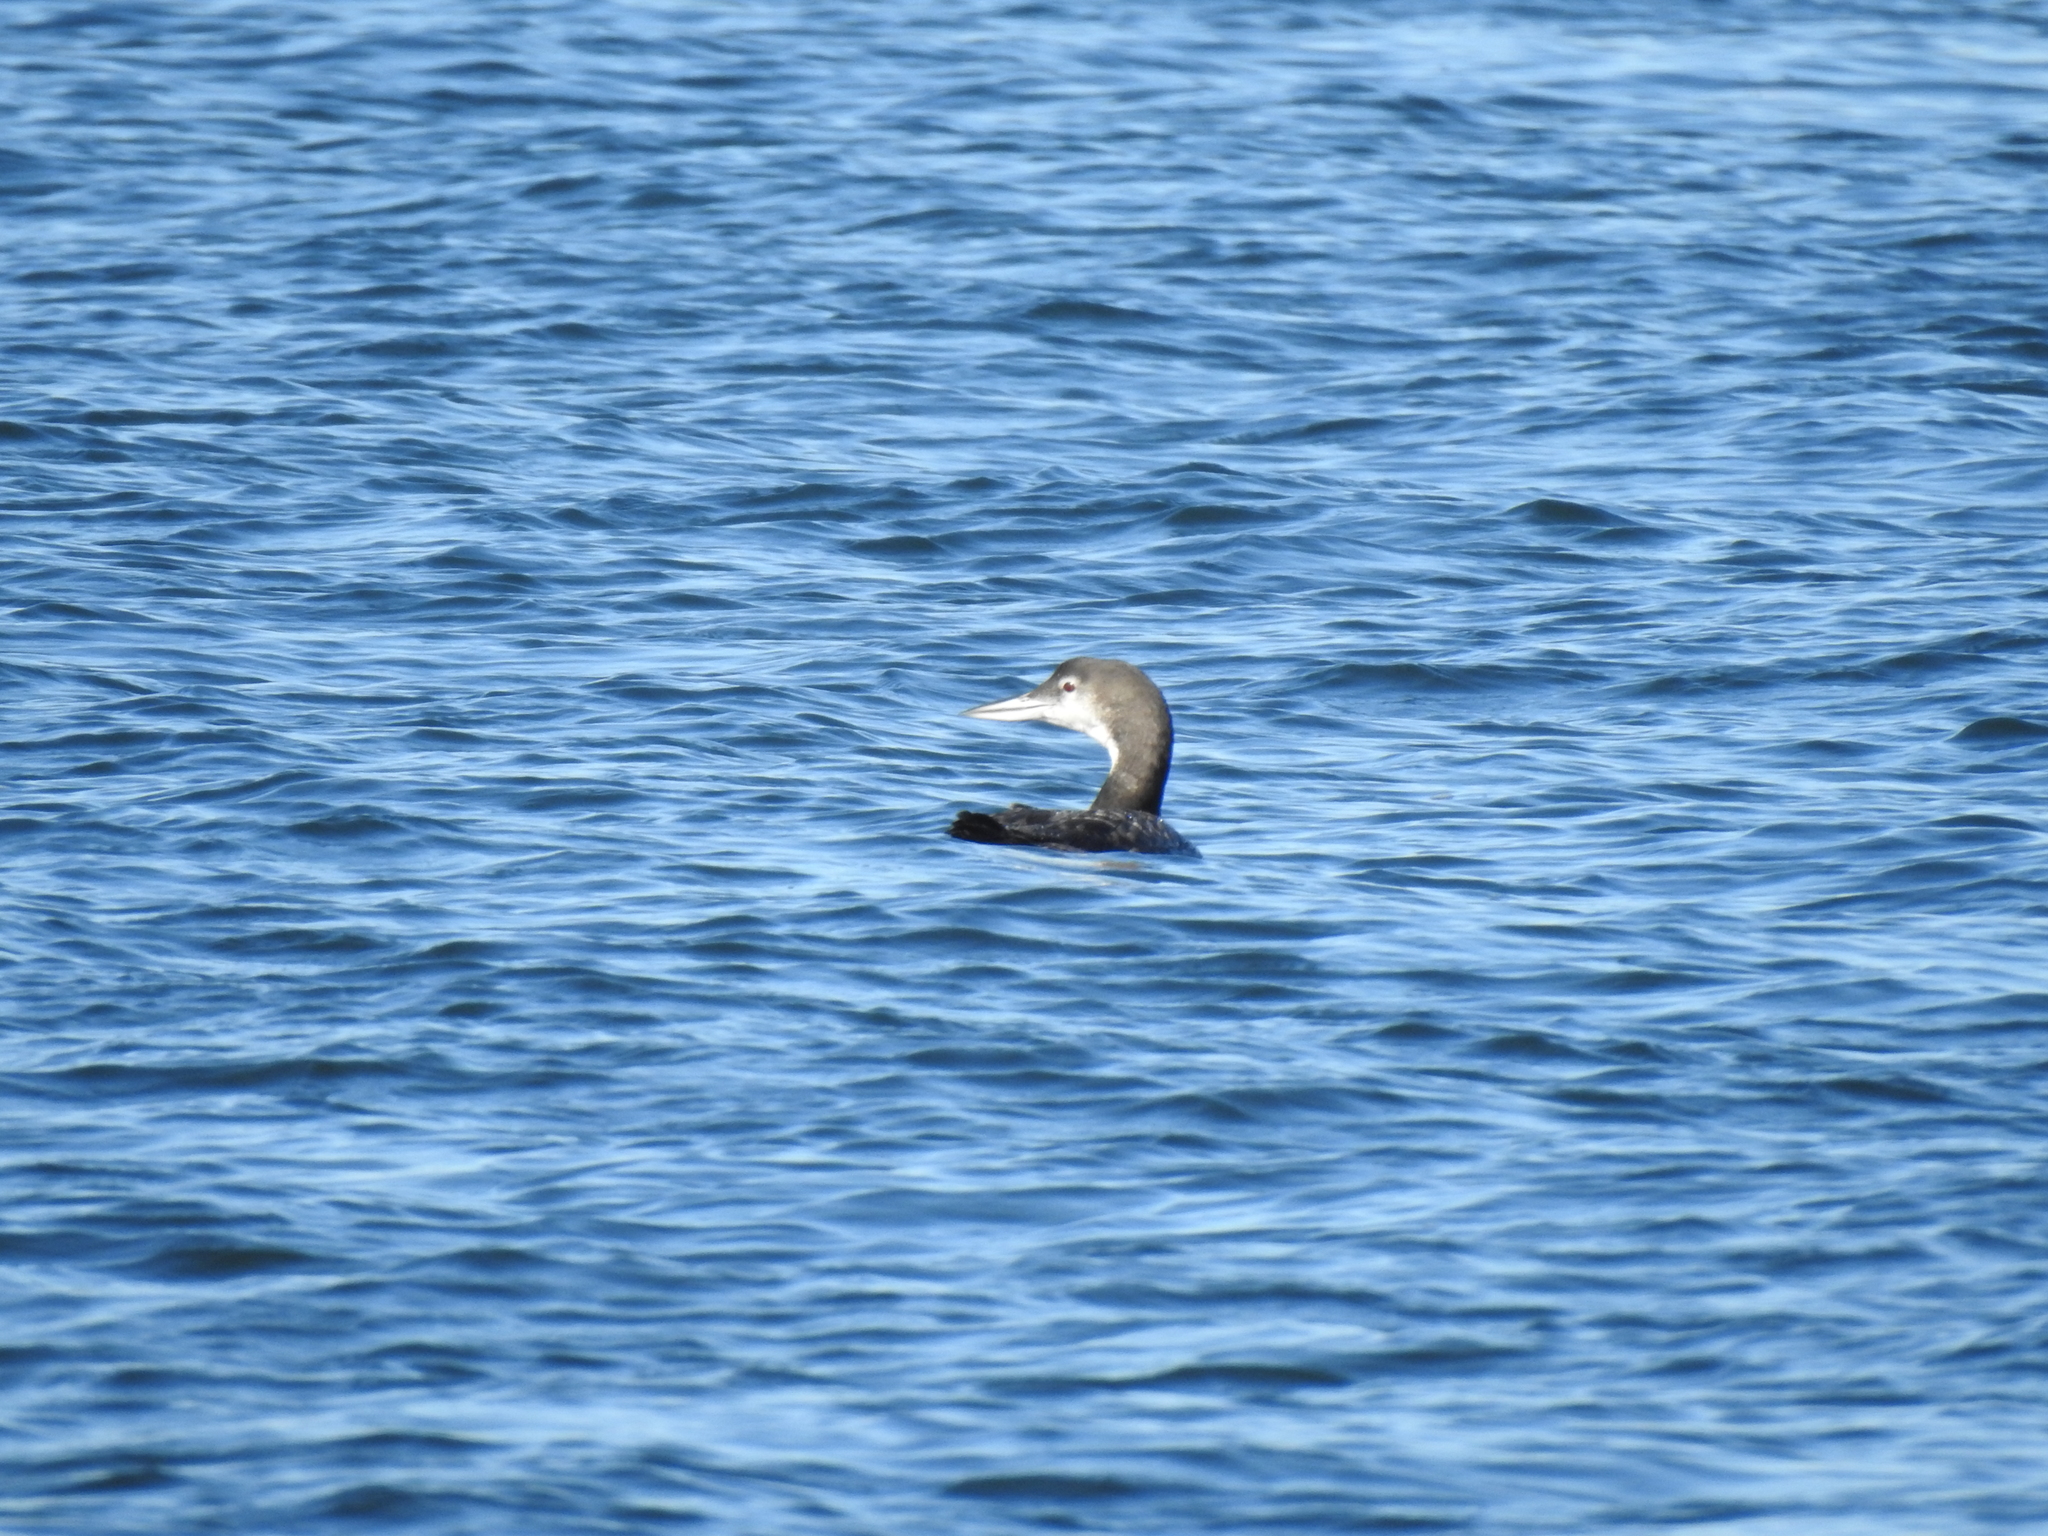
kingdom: Animalia
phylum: Chordata
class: Aves
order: Gaviiformes
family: Gaviidae
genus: Gavia
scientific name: Gavia immer
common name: Common loon
